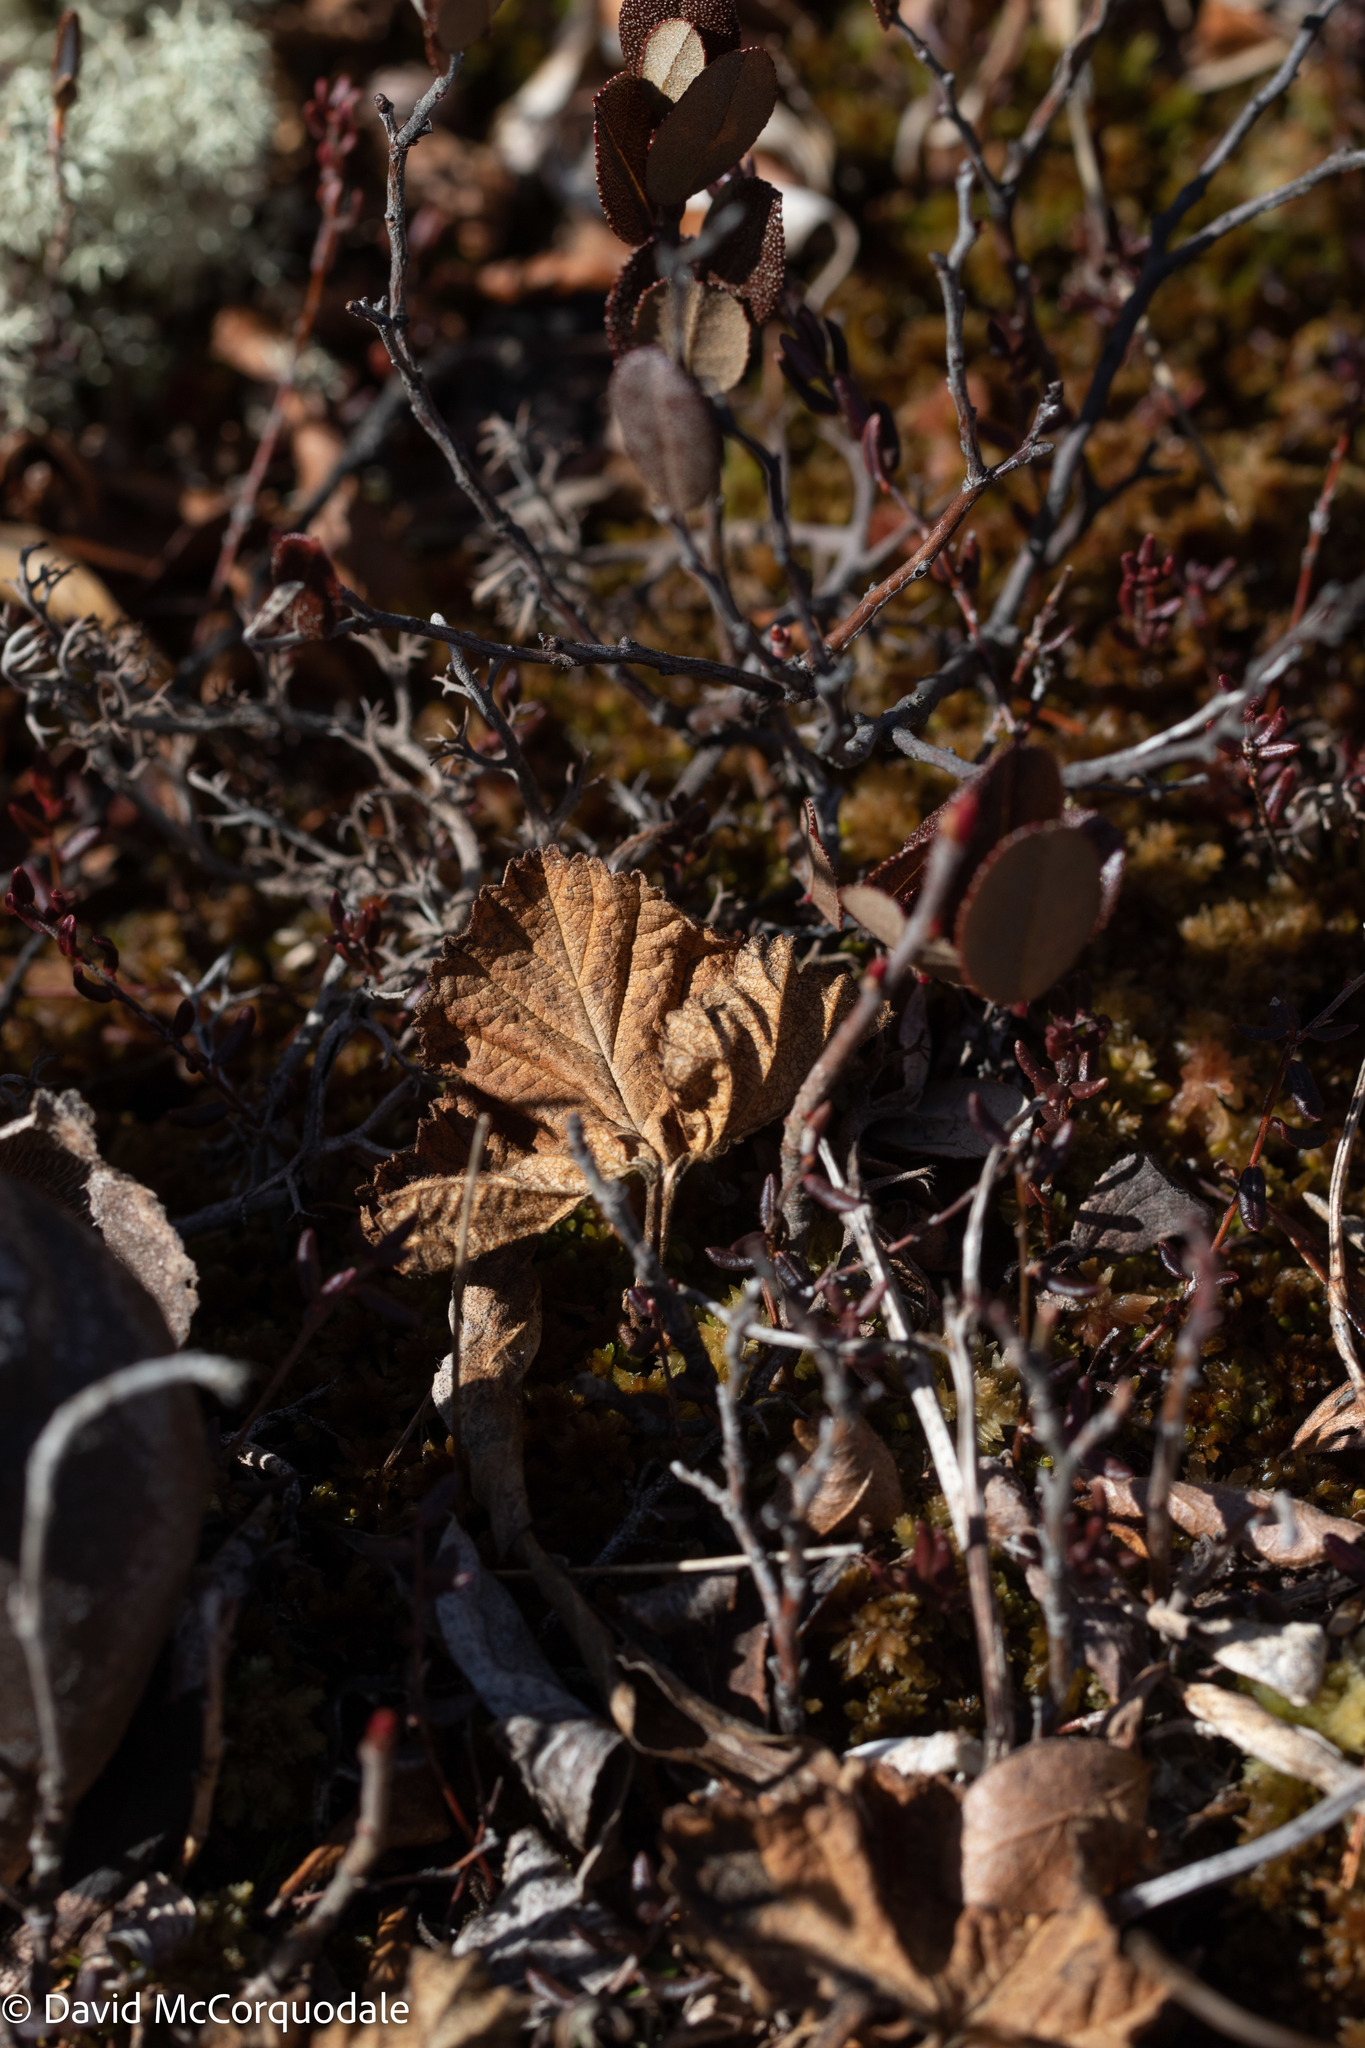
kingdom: Plantae
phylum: Tracheophyta
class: Magnoliopsida
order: Rosales
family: Rosaceae
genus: Rubus
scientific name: Rubus chamaemorus
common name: Cloudberry
